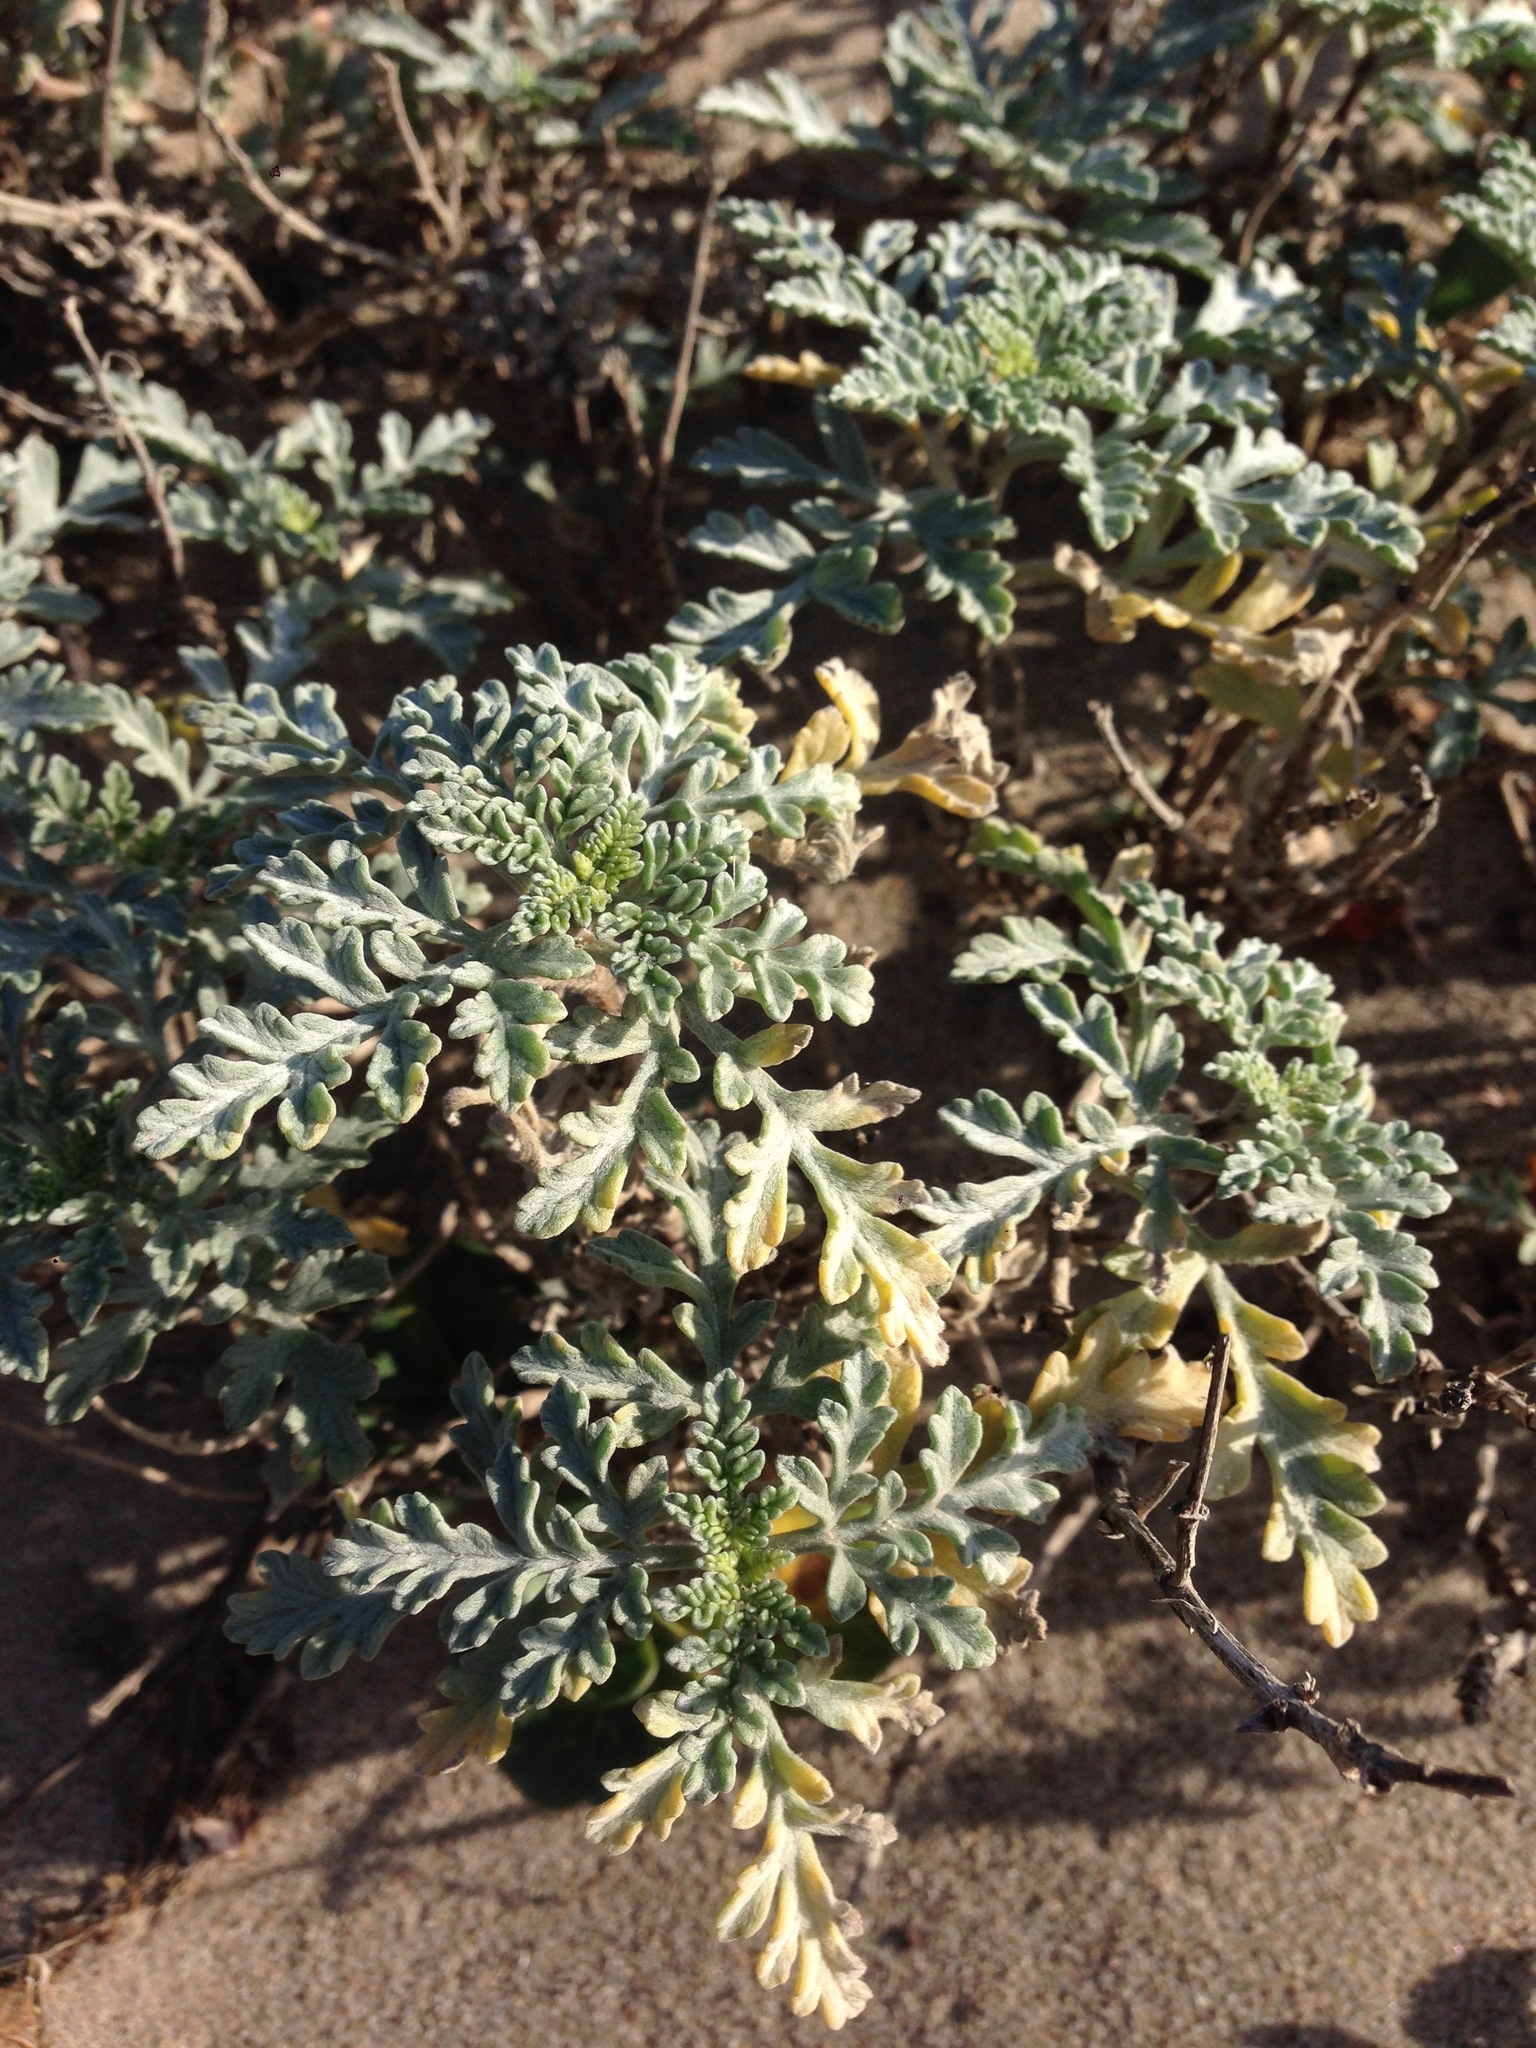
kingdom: Plantae
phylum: Tracheophyta
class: Magnoliopsida
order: Asterales
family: Asteraceae
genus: Ambrosia
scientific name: Ambrosia chamissonis
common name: Beachbur
